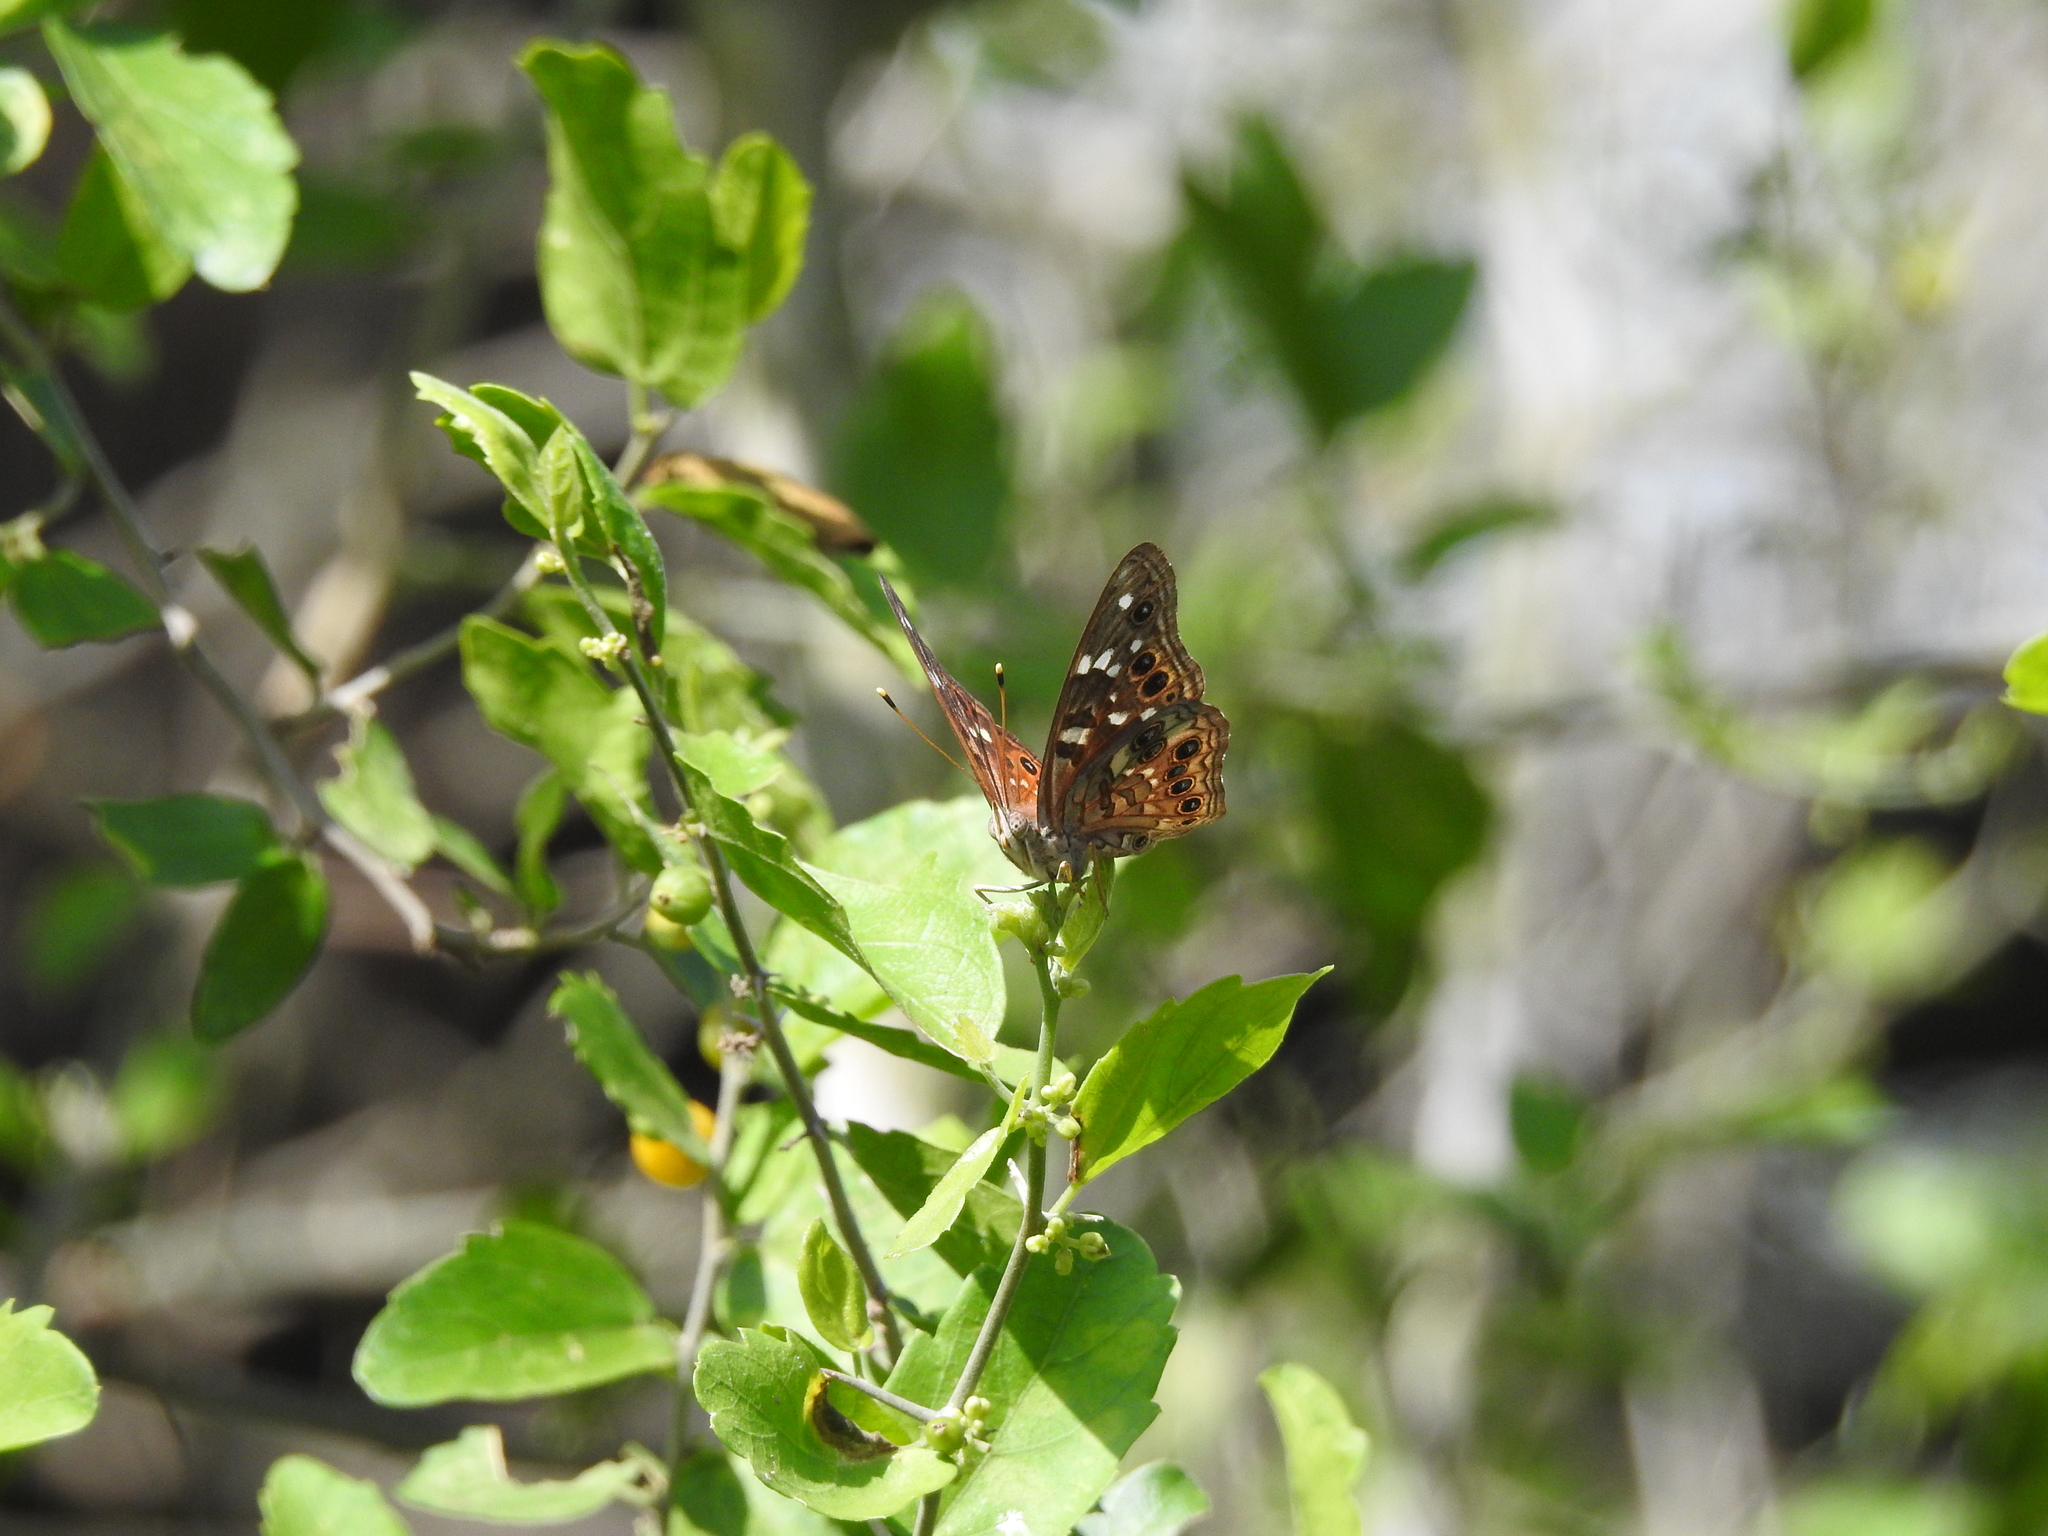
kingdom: Animalia
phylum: Arthropoda
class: Insecta
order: Lepidoptera
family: Nymphalidae
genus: Asterocampa
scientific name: Asterocampa leilia
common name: Empress leilia
